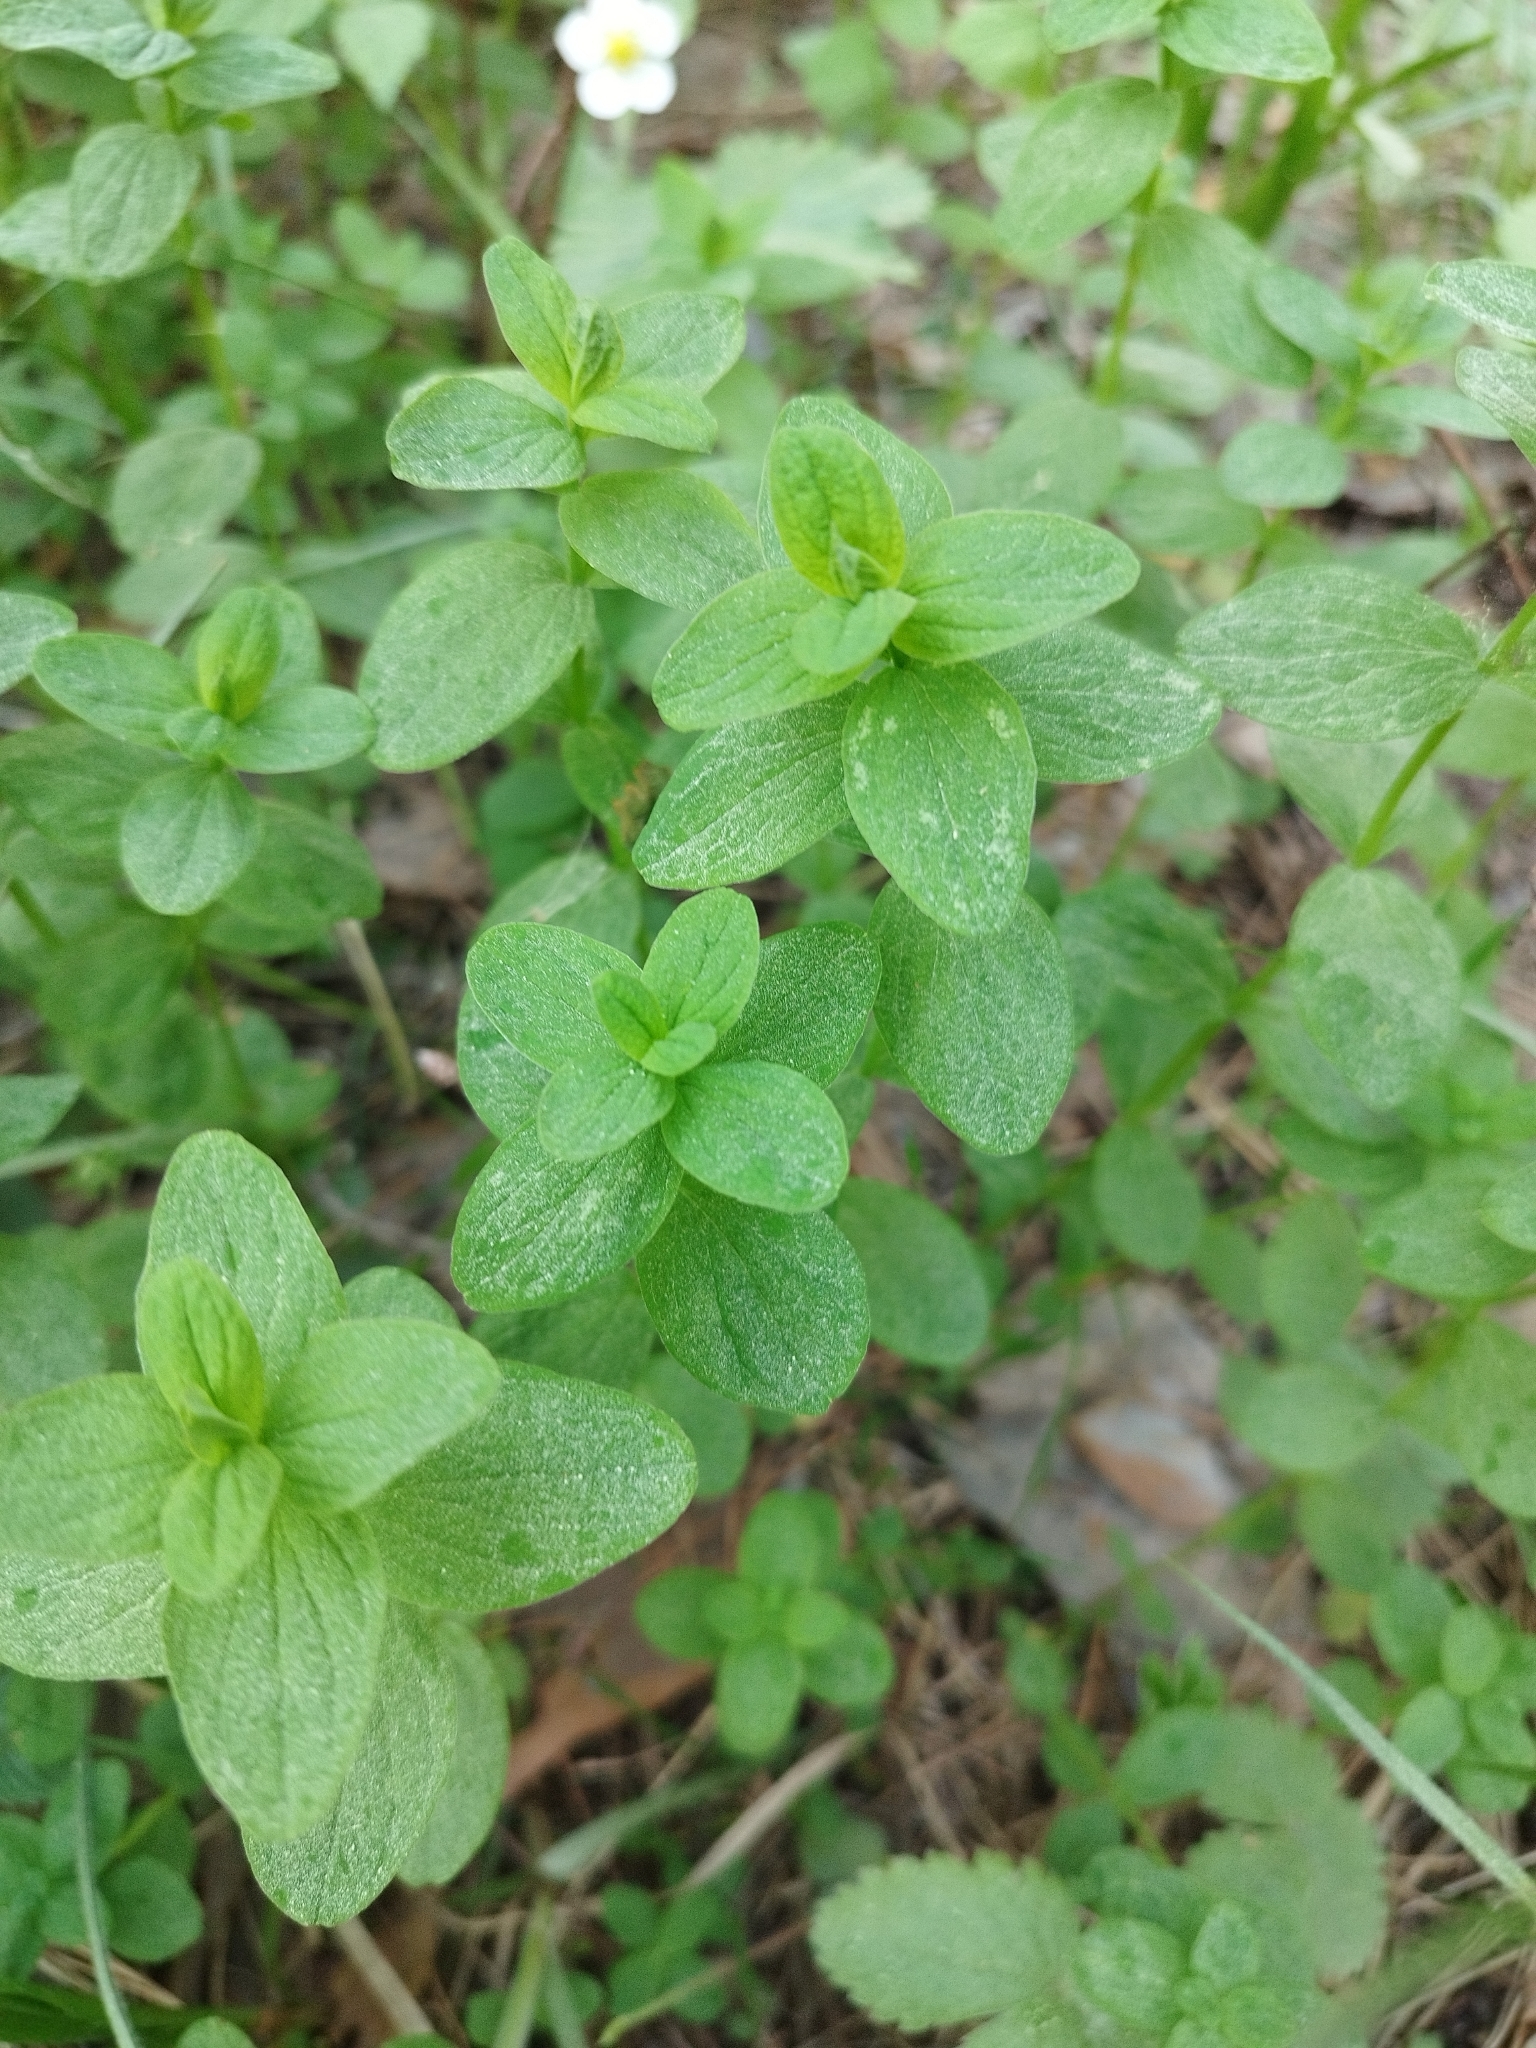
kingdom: Plantae
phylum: Tracheophyta
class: Magnoliopsida
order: Malpighiales
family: Hypericaceae
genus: Hypericum
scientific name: Hypericum maculatum
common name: Imperforate st. john's-wort
